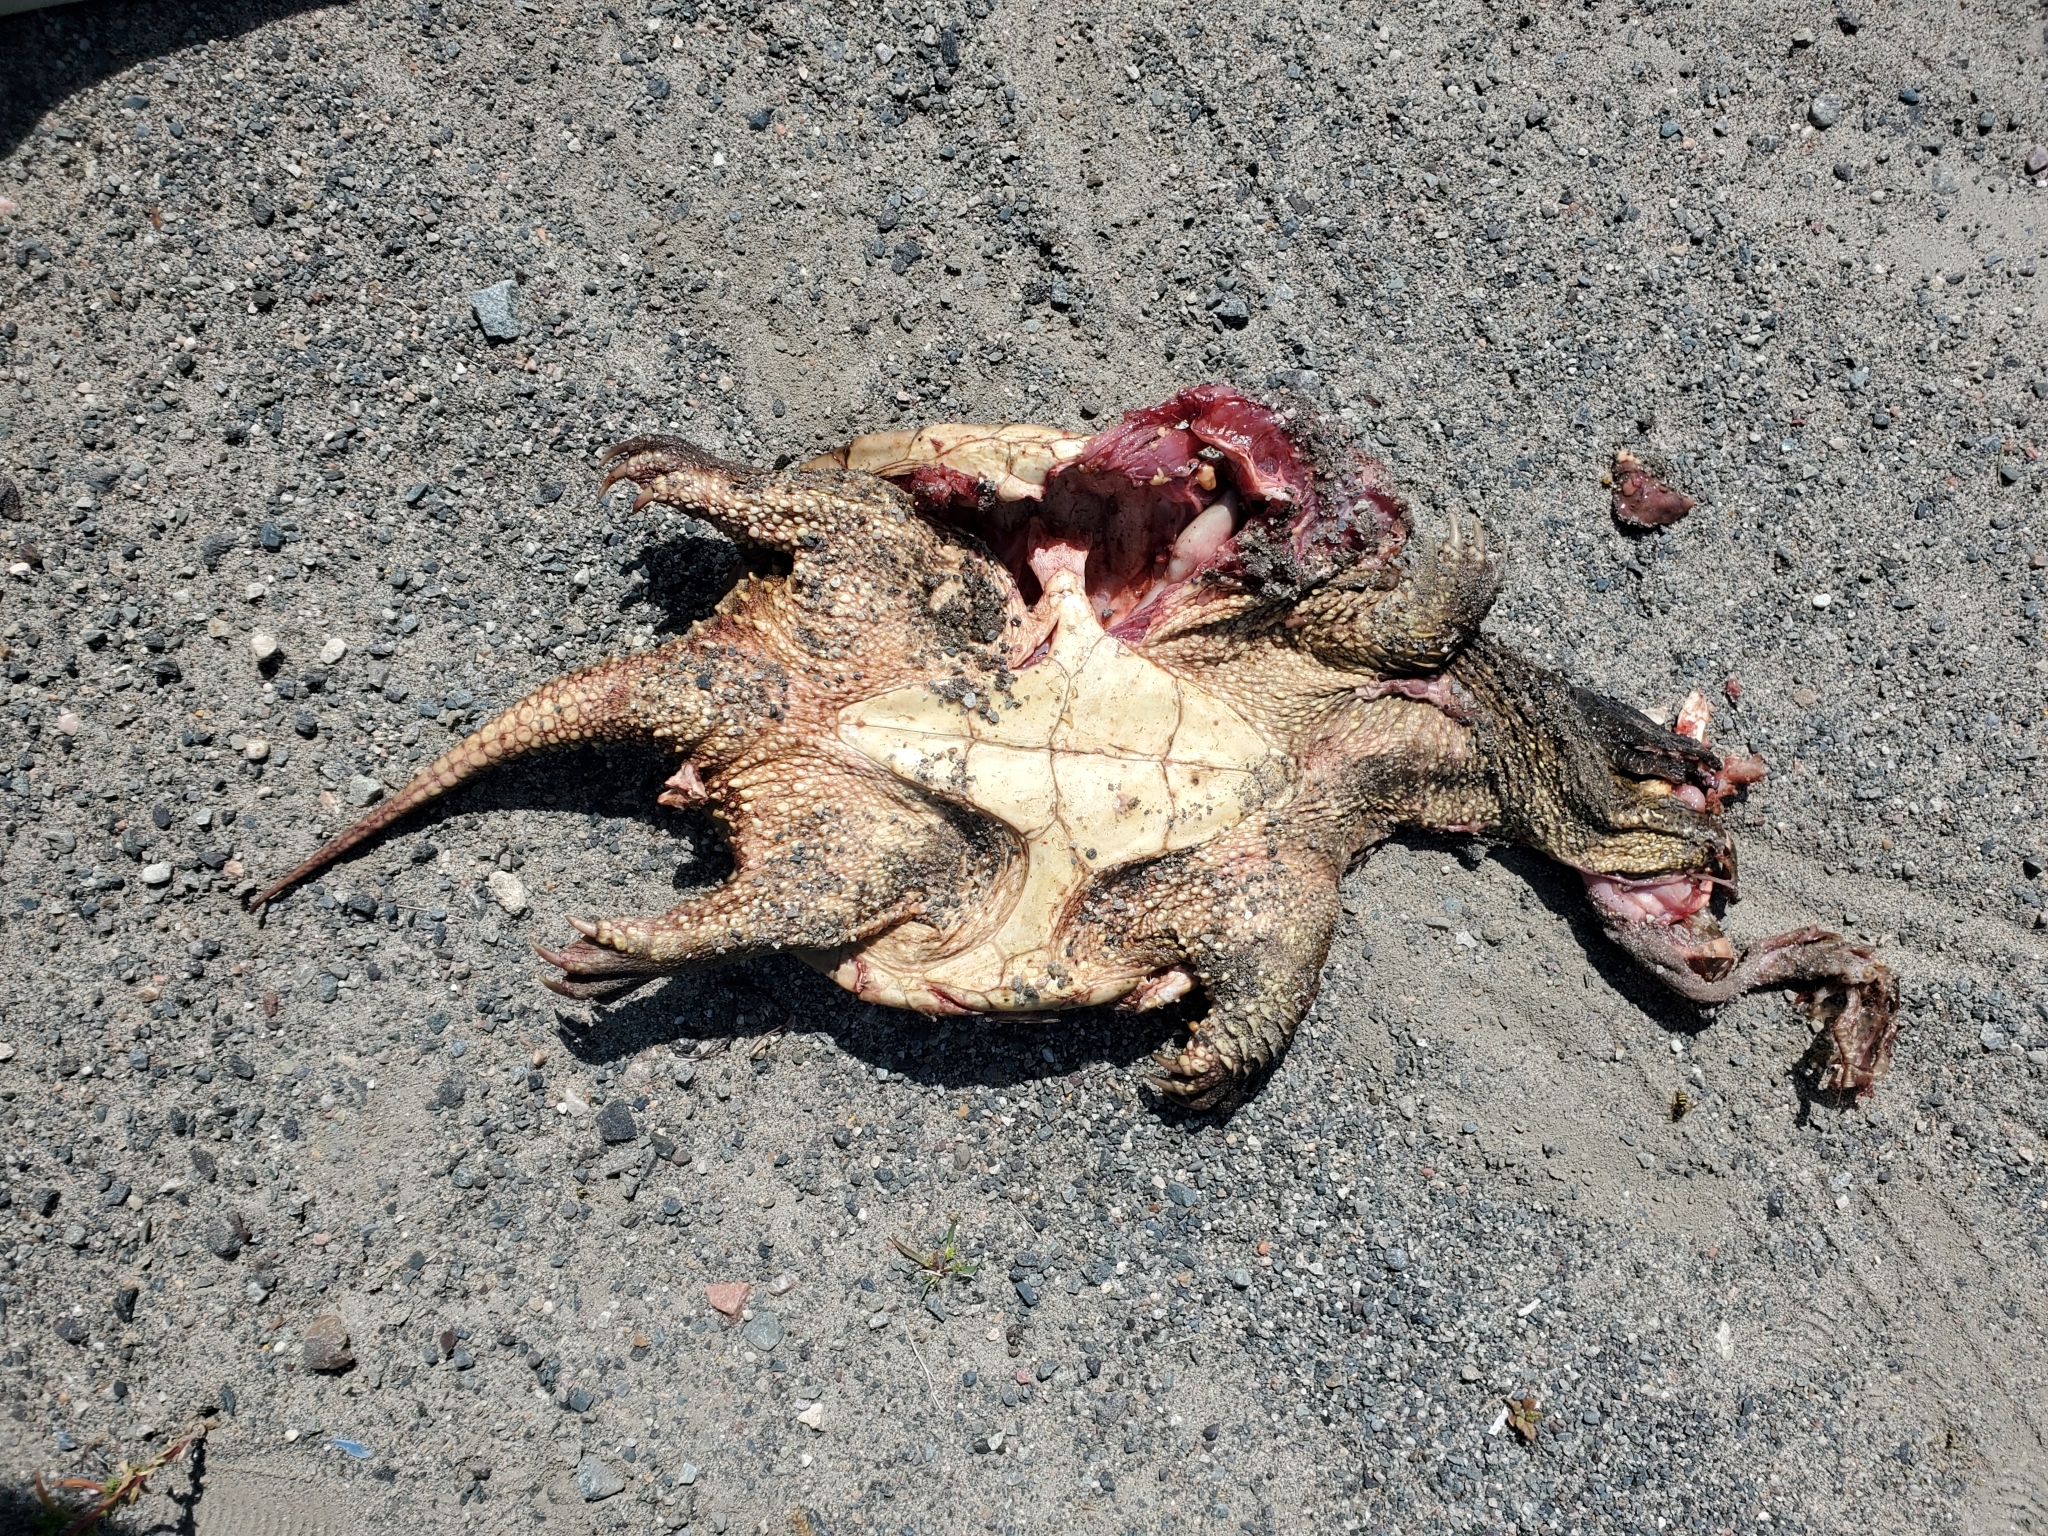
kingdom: Animalia
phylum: Chordata
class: Testudines
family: Chelydridae
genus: Chelydra
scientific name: Chelydra serpentina
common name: Common snapping turtle
